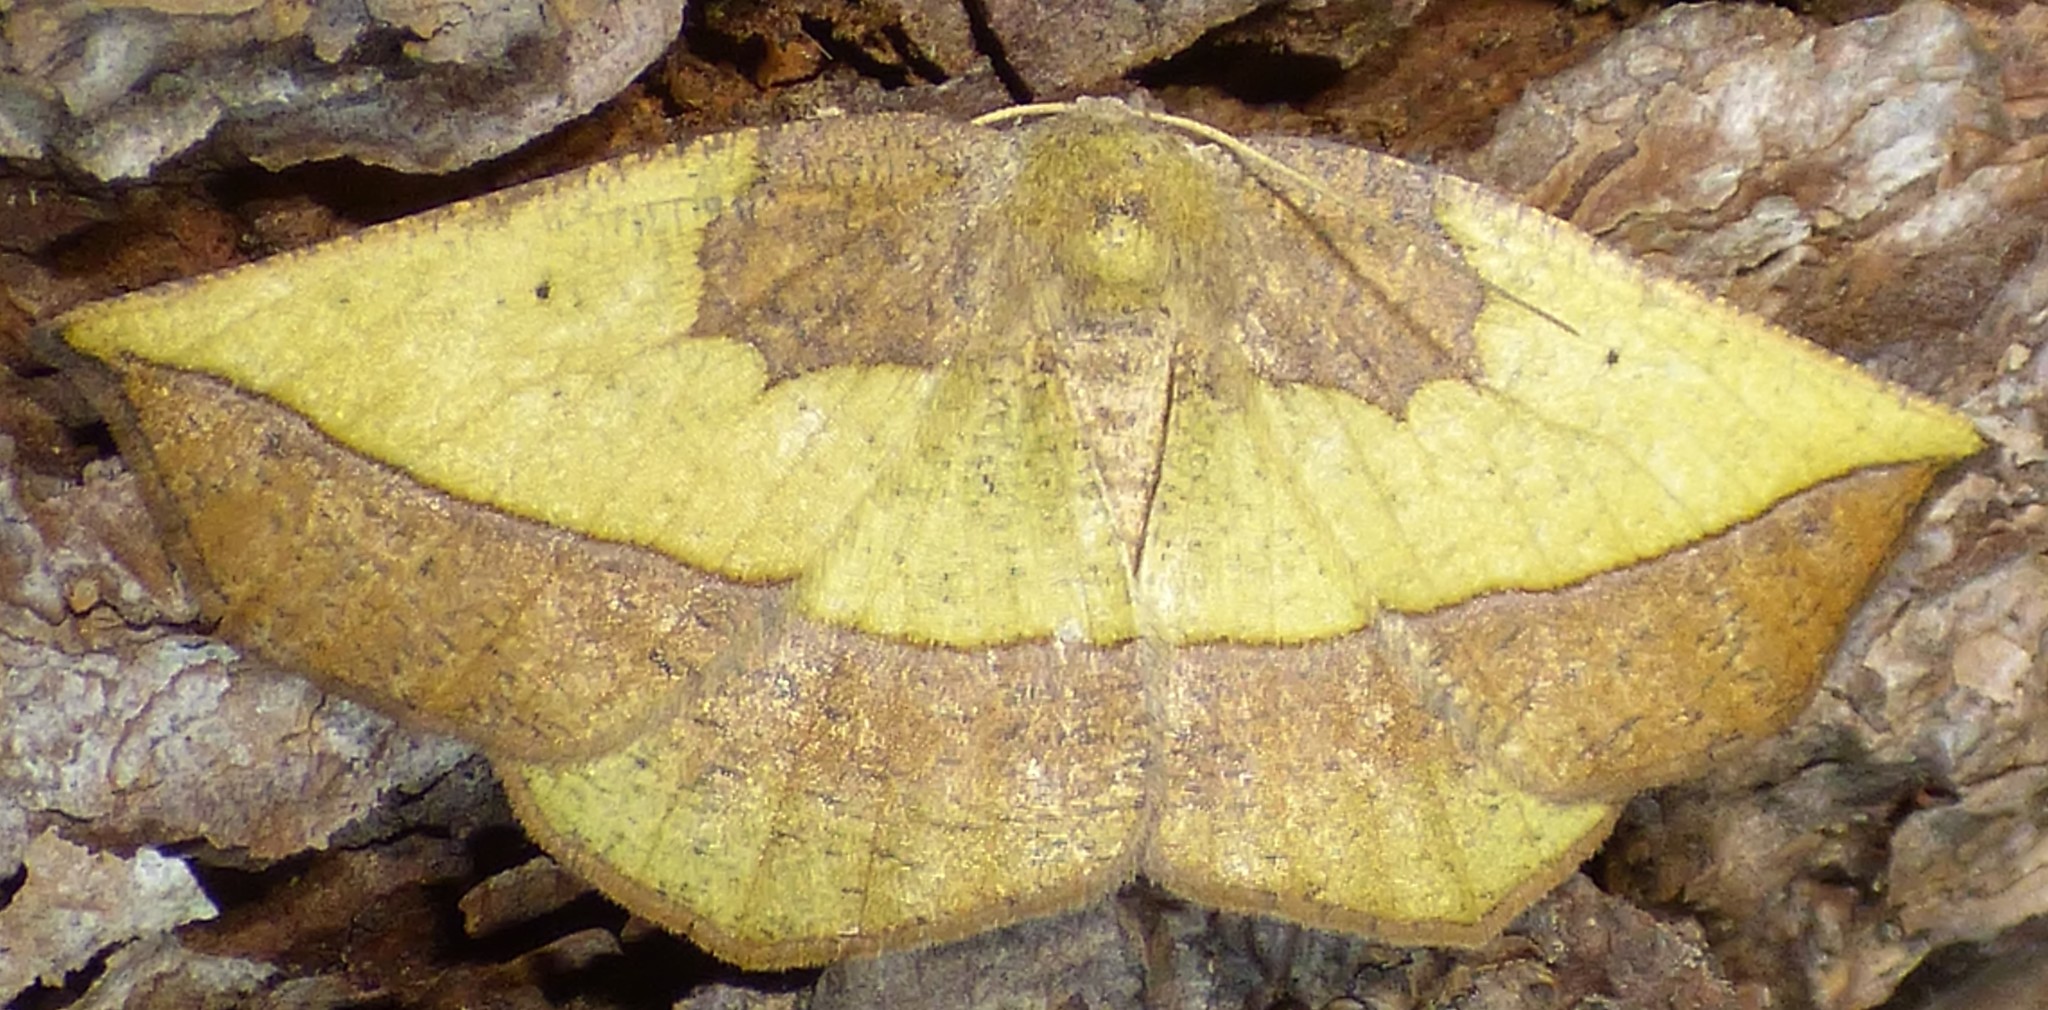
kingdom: Animalia
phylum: Arthropoda
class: Insecta
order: Lepidoptera
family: Geometridae
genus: Eusarca
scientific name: Eusarca fundaria
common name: Dark-edged eusarca moth
